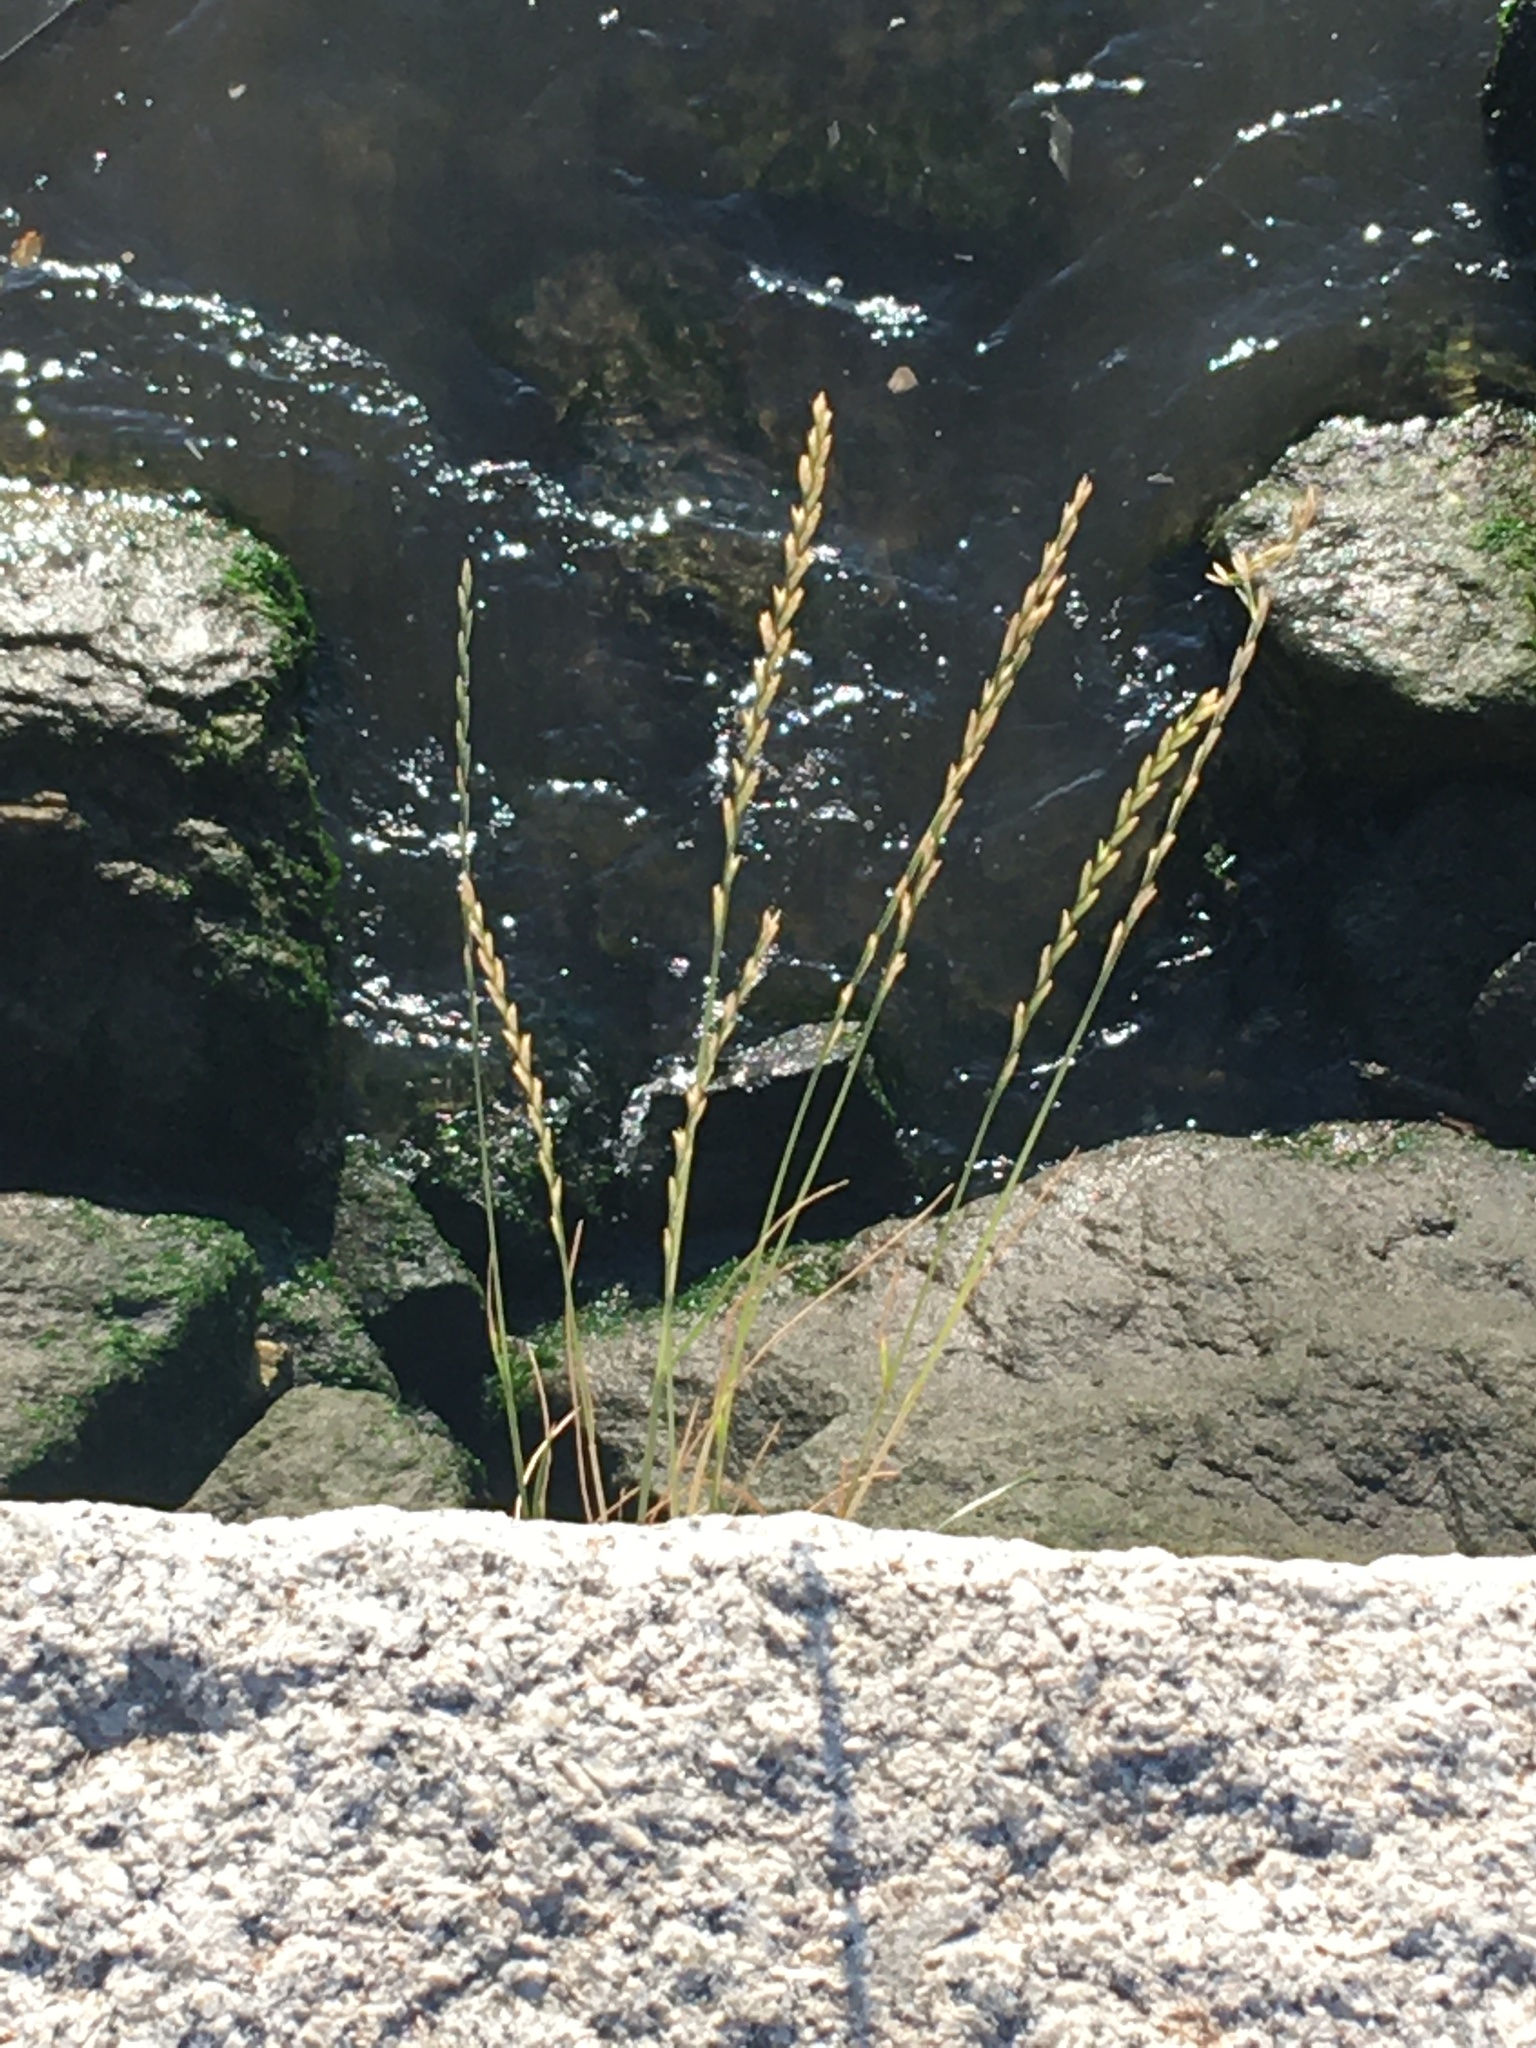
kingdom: Plantae
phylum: Tracheophyta
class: Liliopsida
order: Poales
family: Poaceae
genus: Lolium
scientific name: Lolium perenne
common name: Perennial ryegrass
